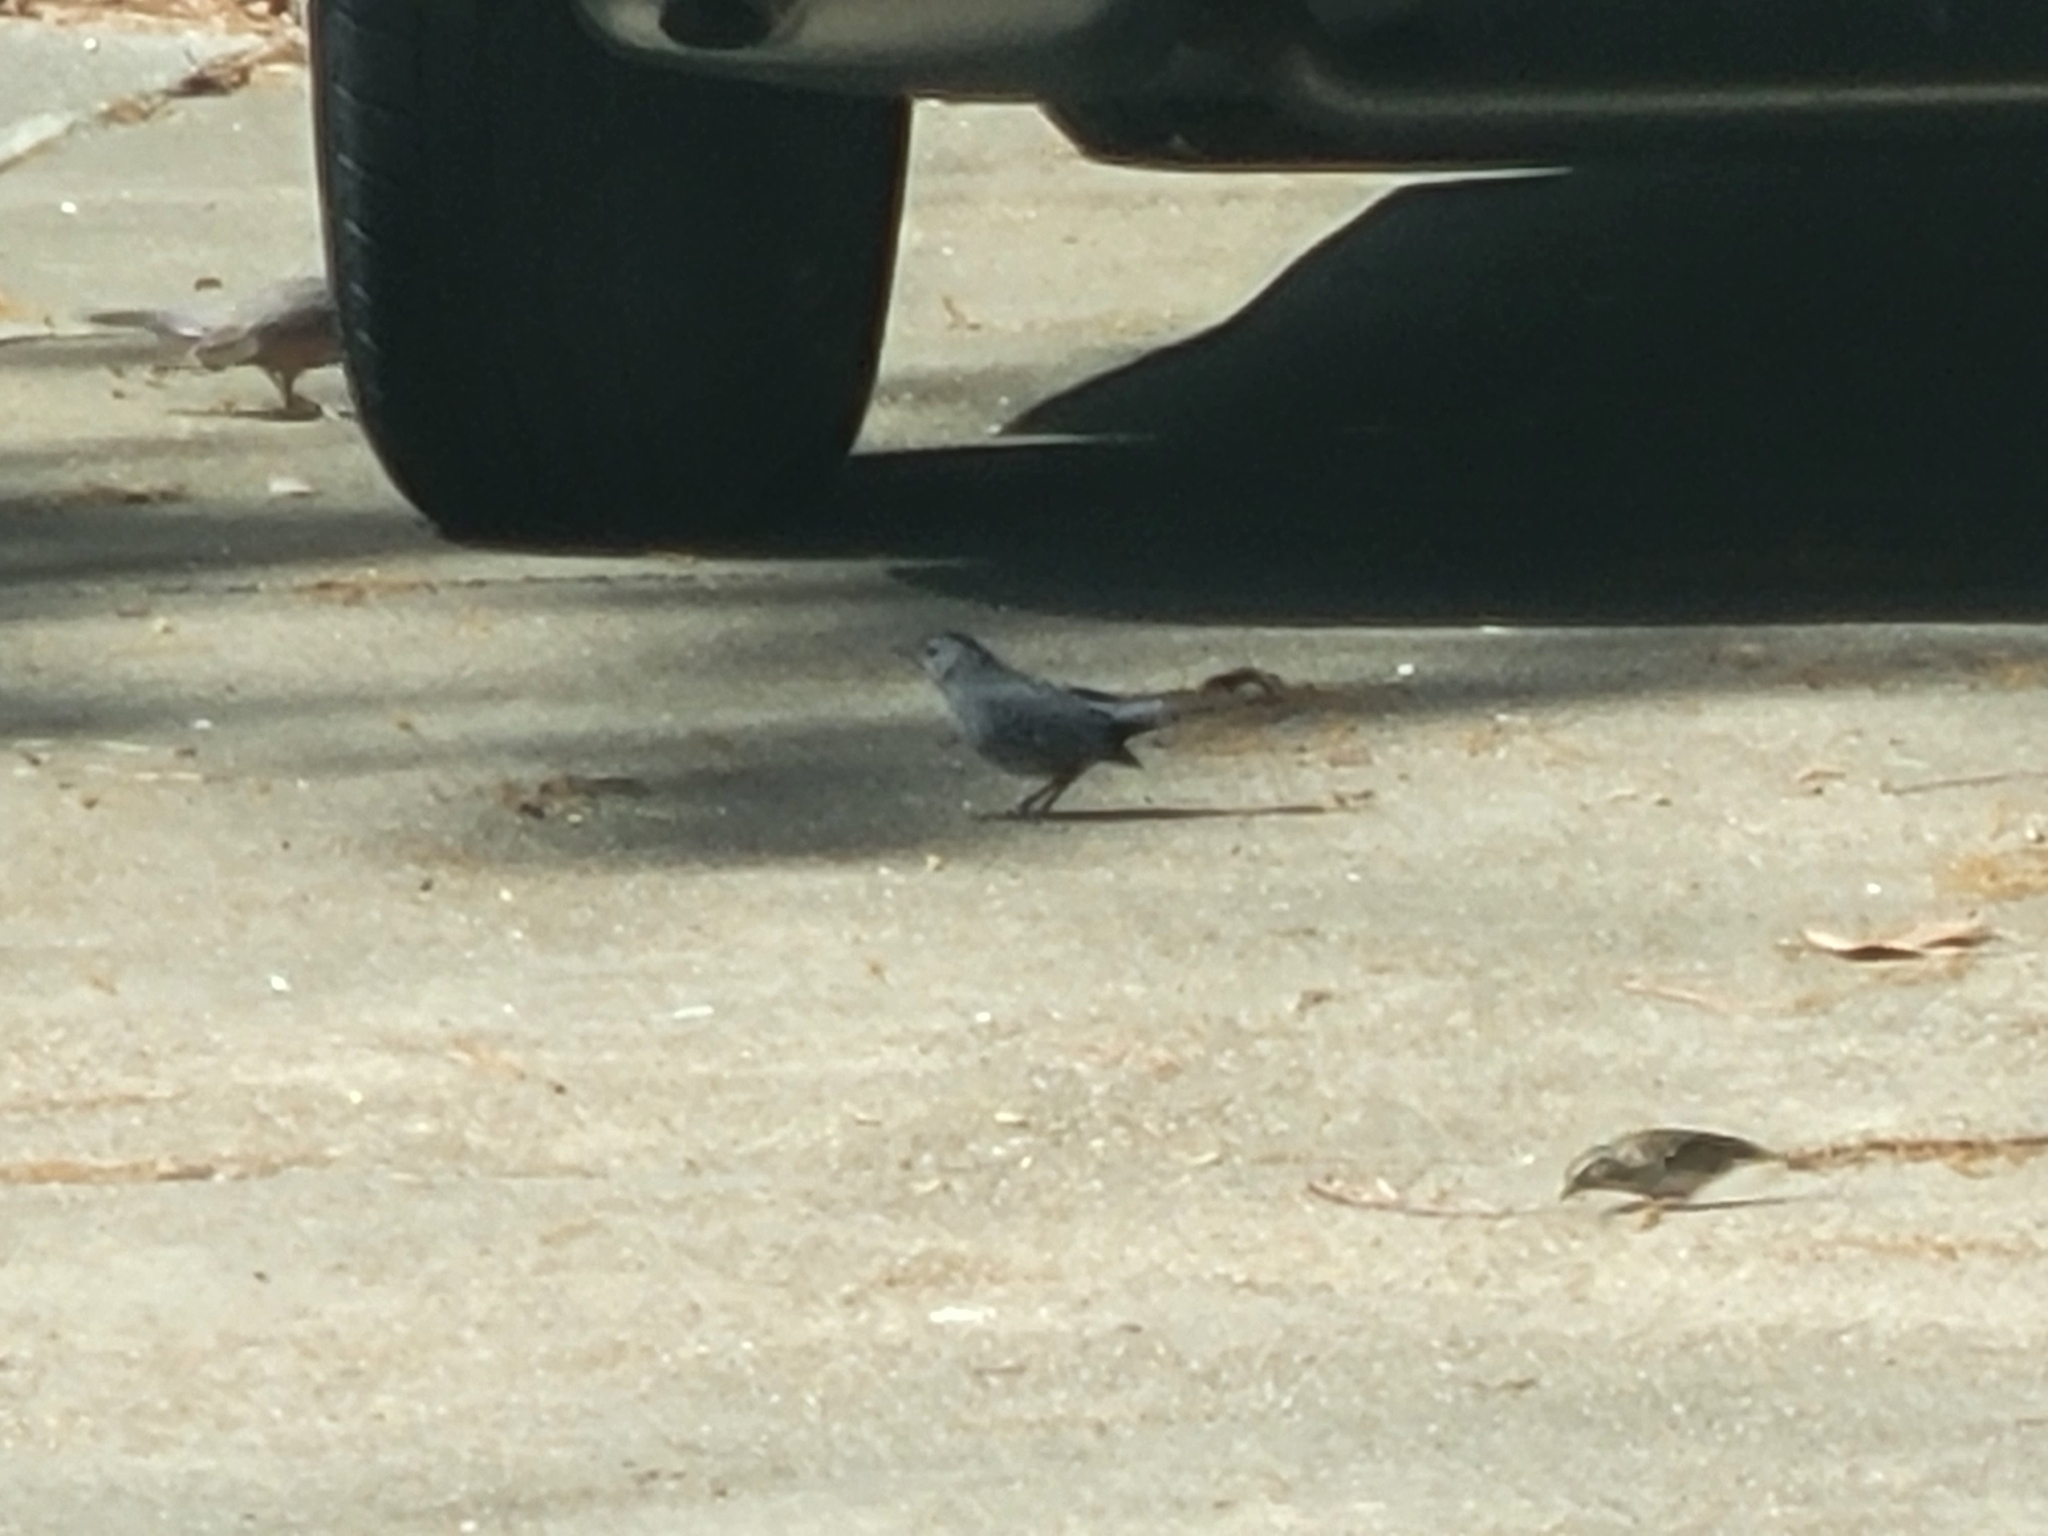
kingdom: Animalia
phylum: Chordata
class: Aves
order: Passeriformes
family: Mimidae
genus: Dumetella
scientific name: Dumetella carolinensis
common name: Gray catbird
